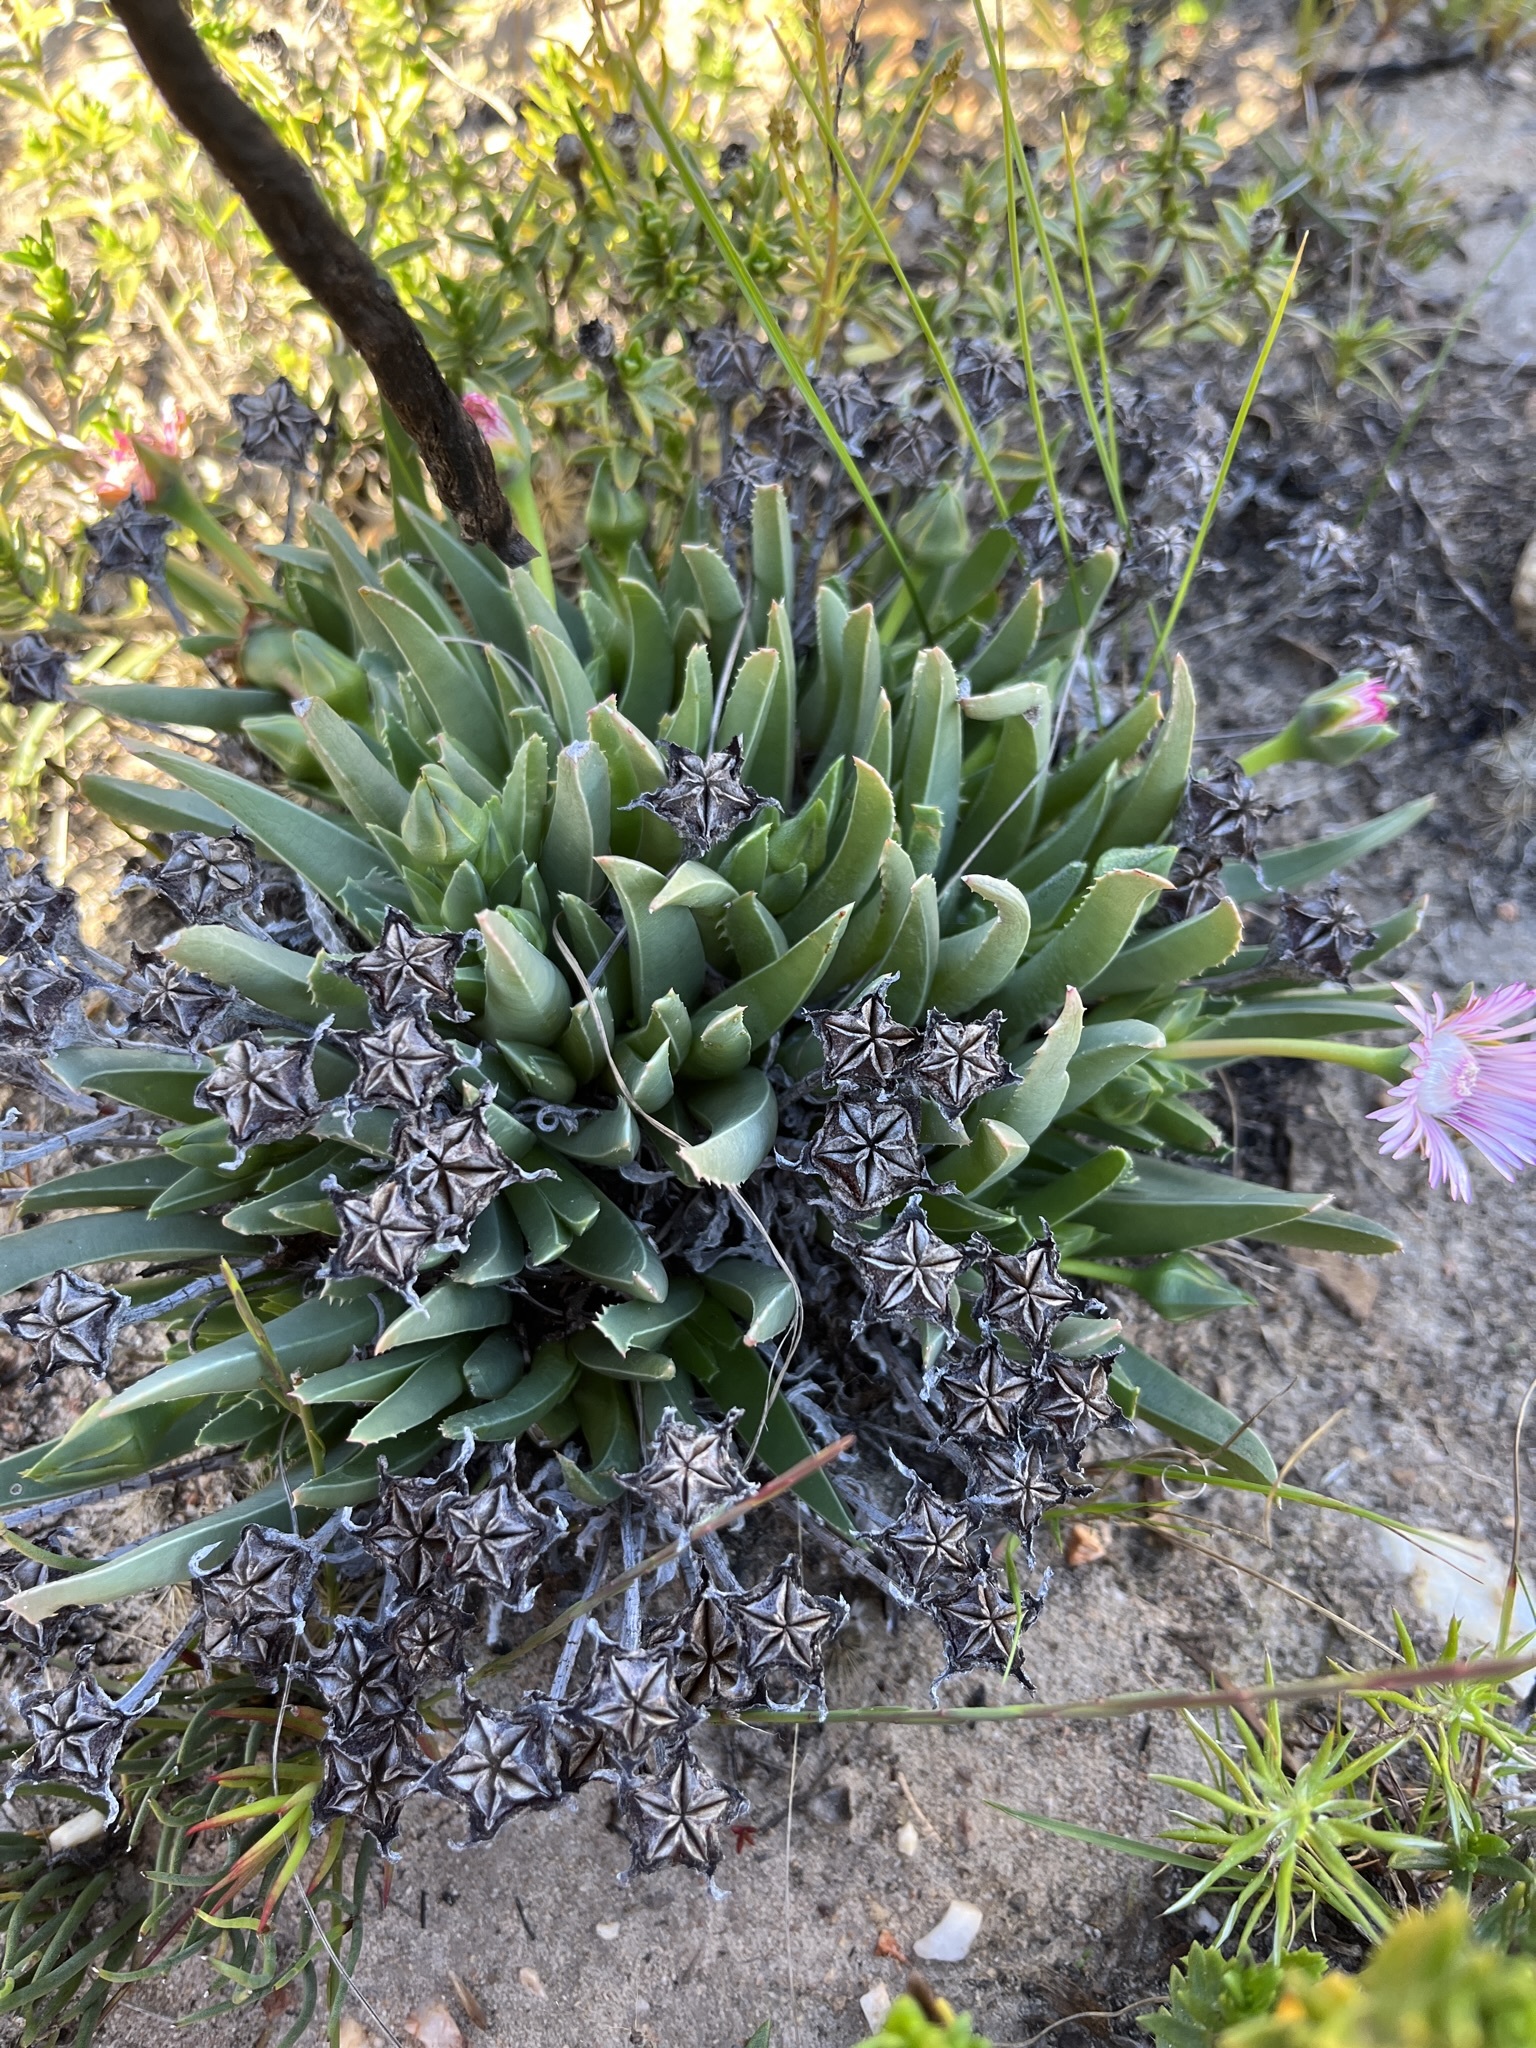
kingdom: Plantae
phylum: Tracheophyta
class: Magnoliopsida
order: Caryophyllales
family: Aizoaceae
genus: Acrodon
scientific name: Acrodon bellidiflorus
